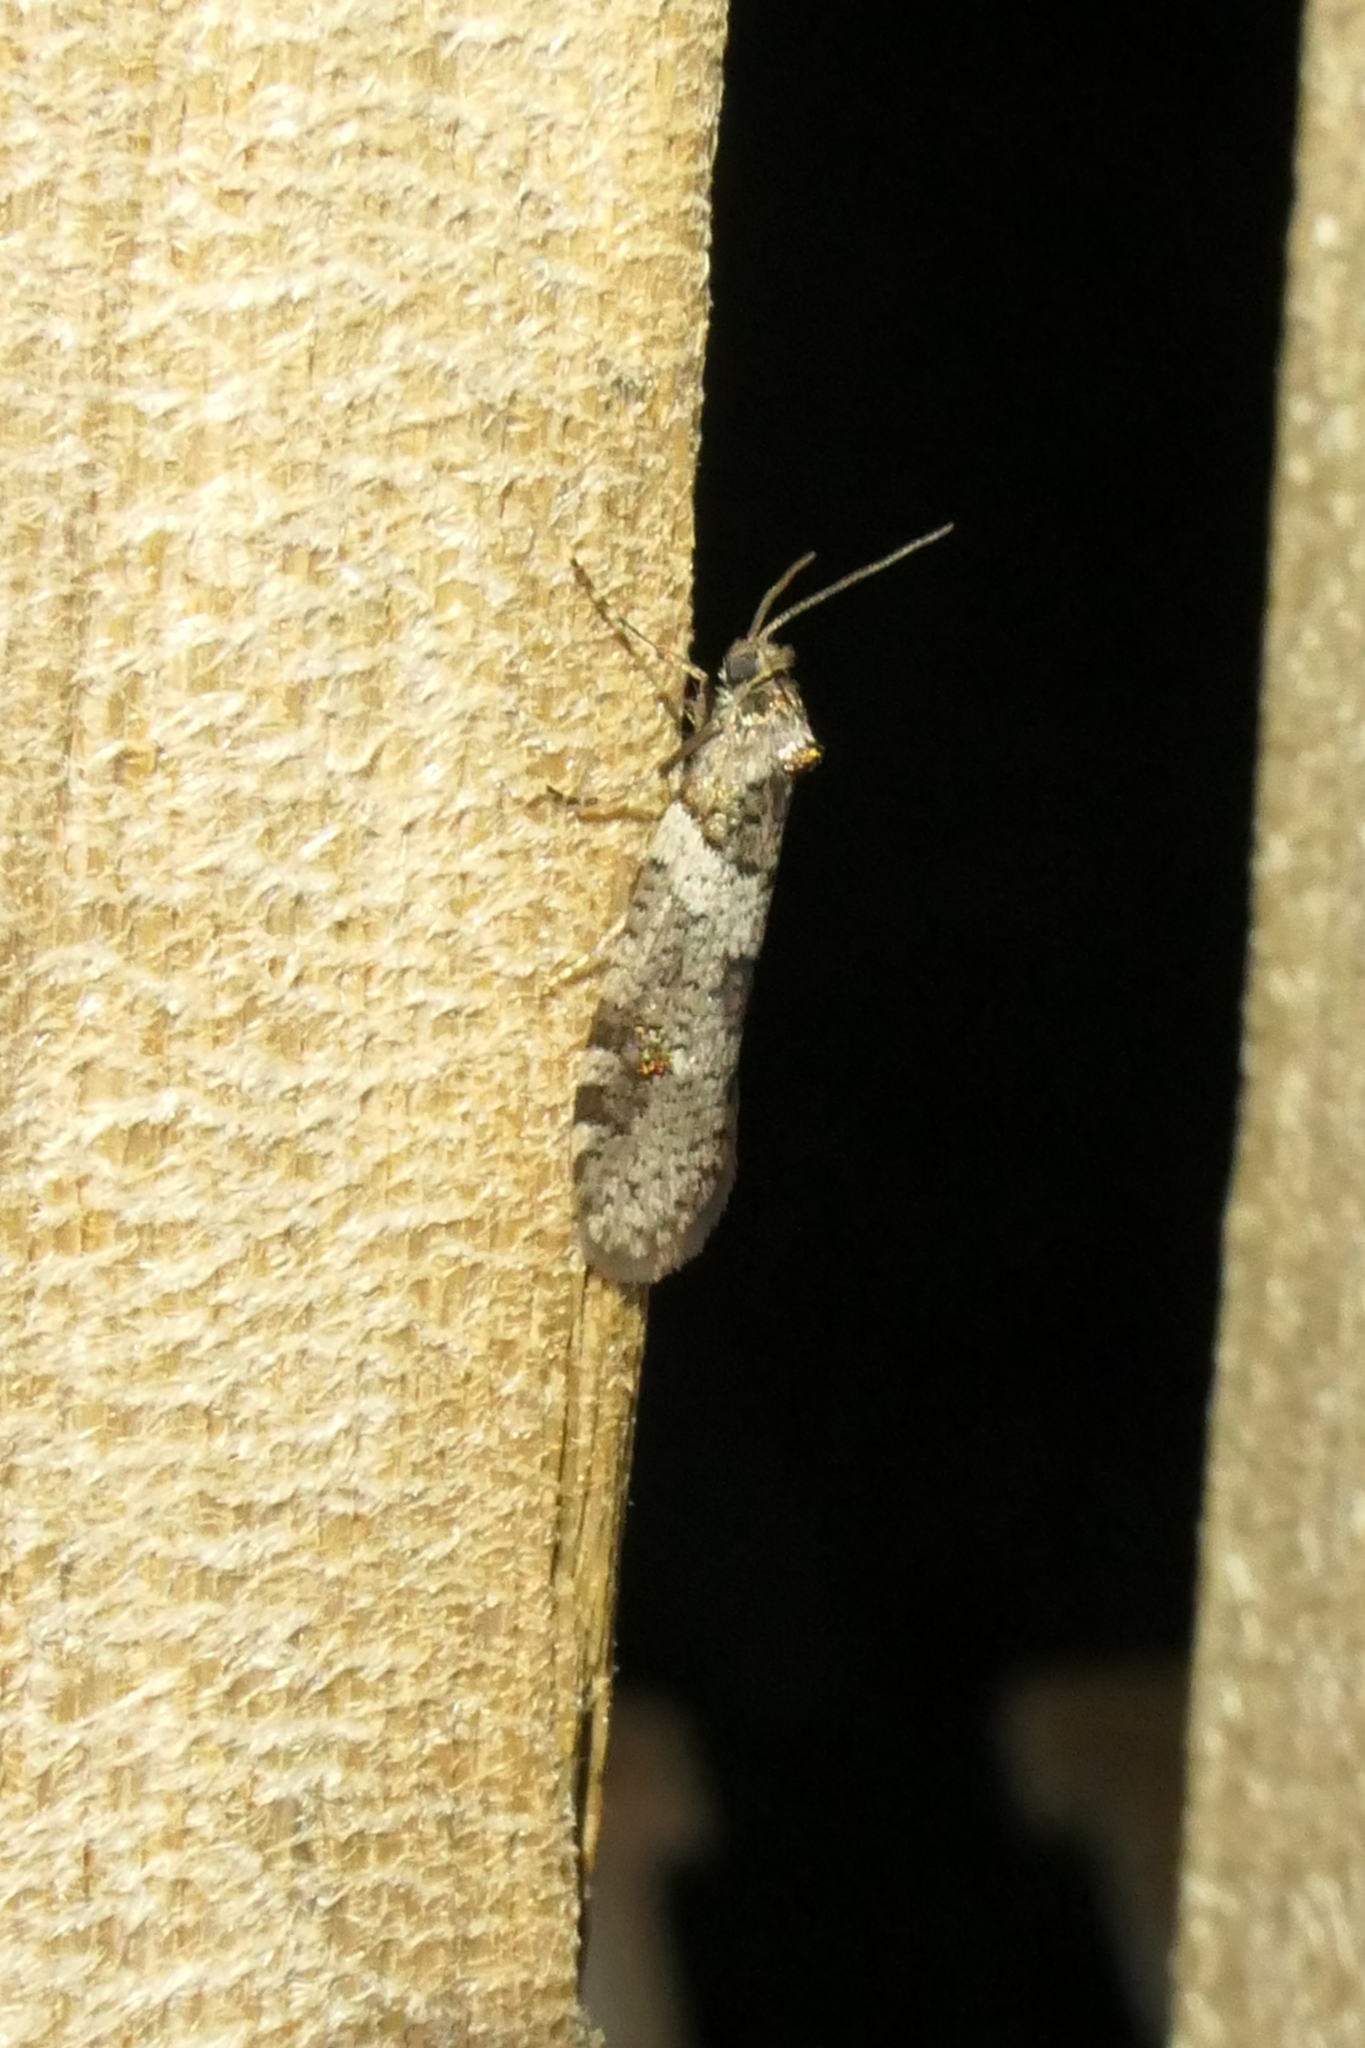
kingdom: Animalia
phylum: Arthropoda
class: Insecta
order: Lepidoptera
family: Psychidae
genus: Lepidoscia
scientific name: Lepidoscia heliochares
